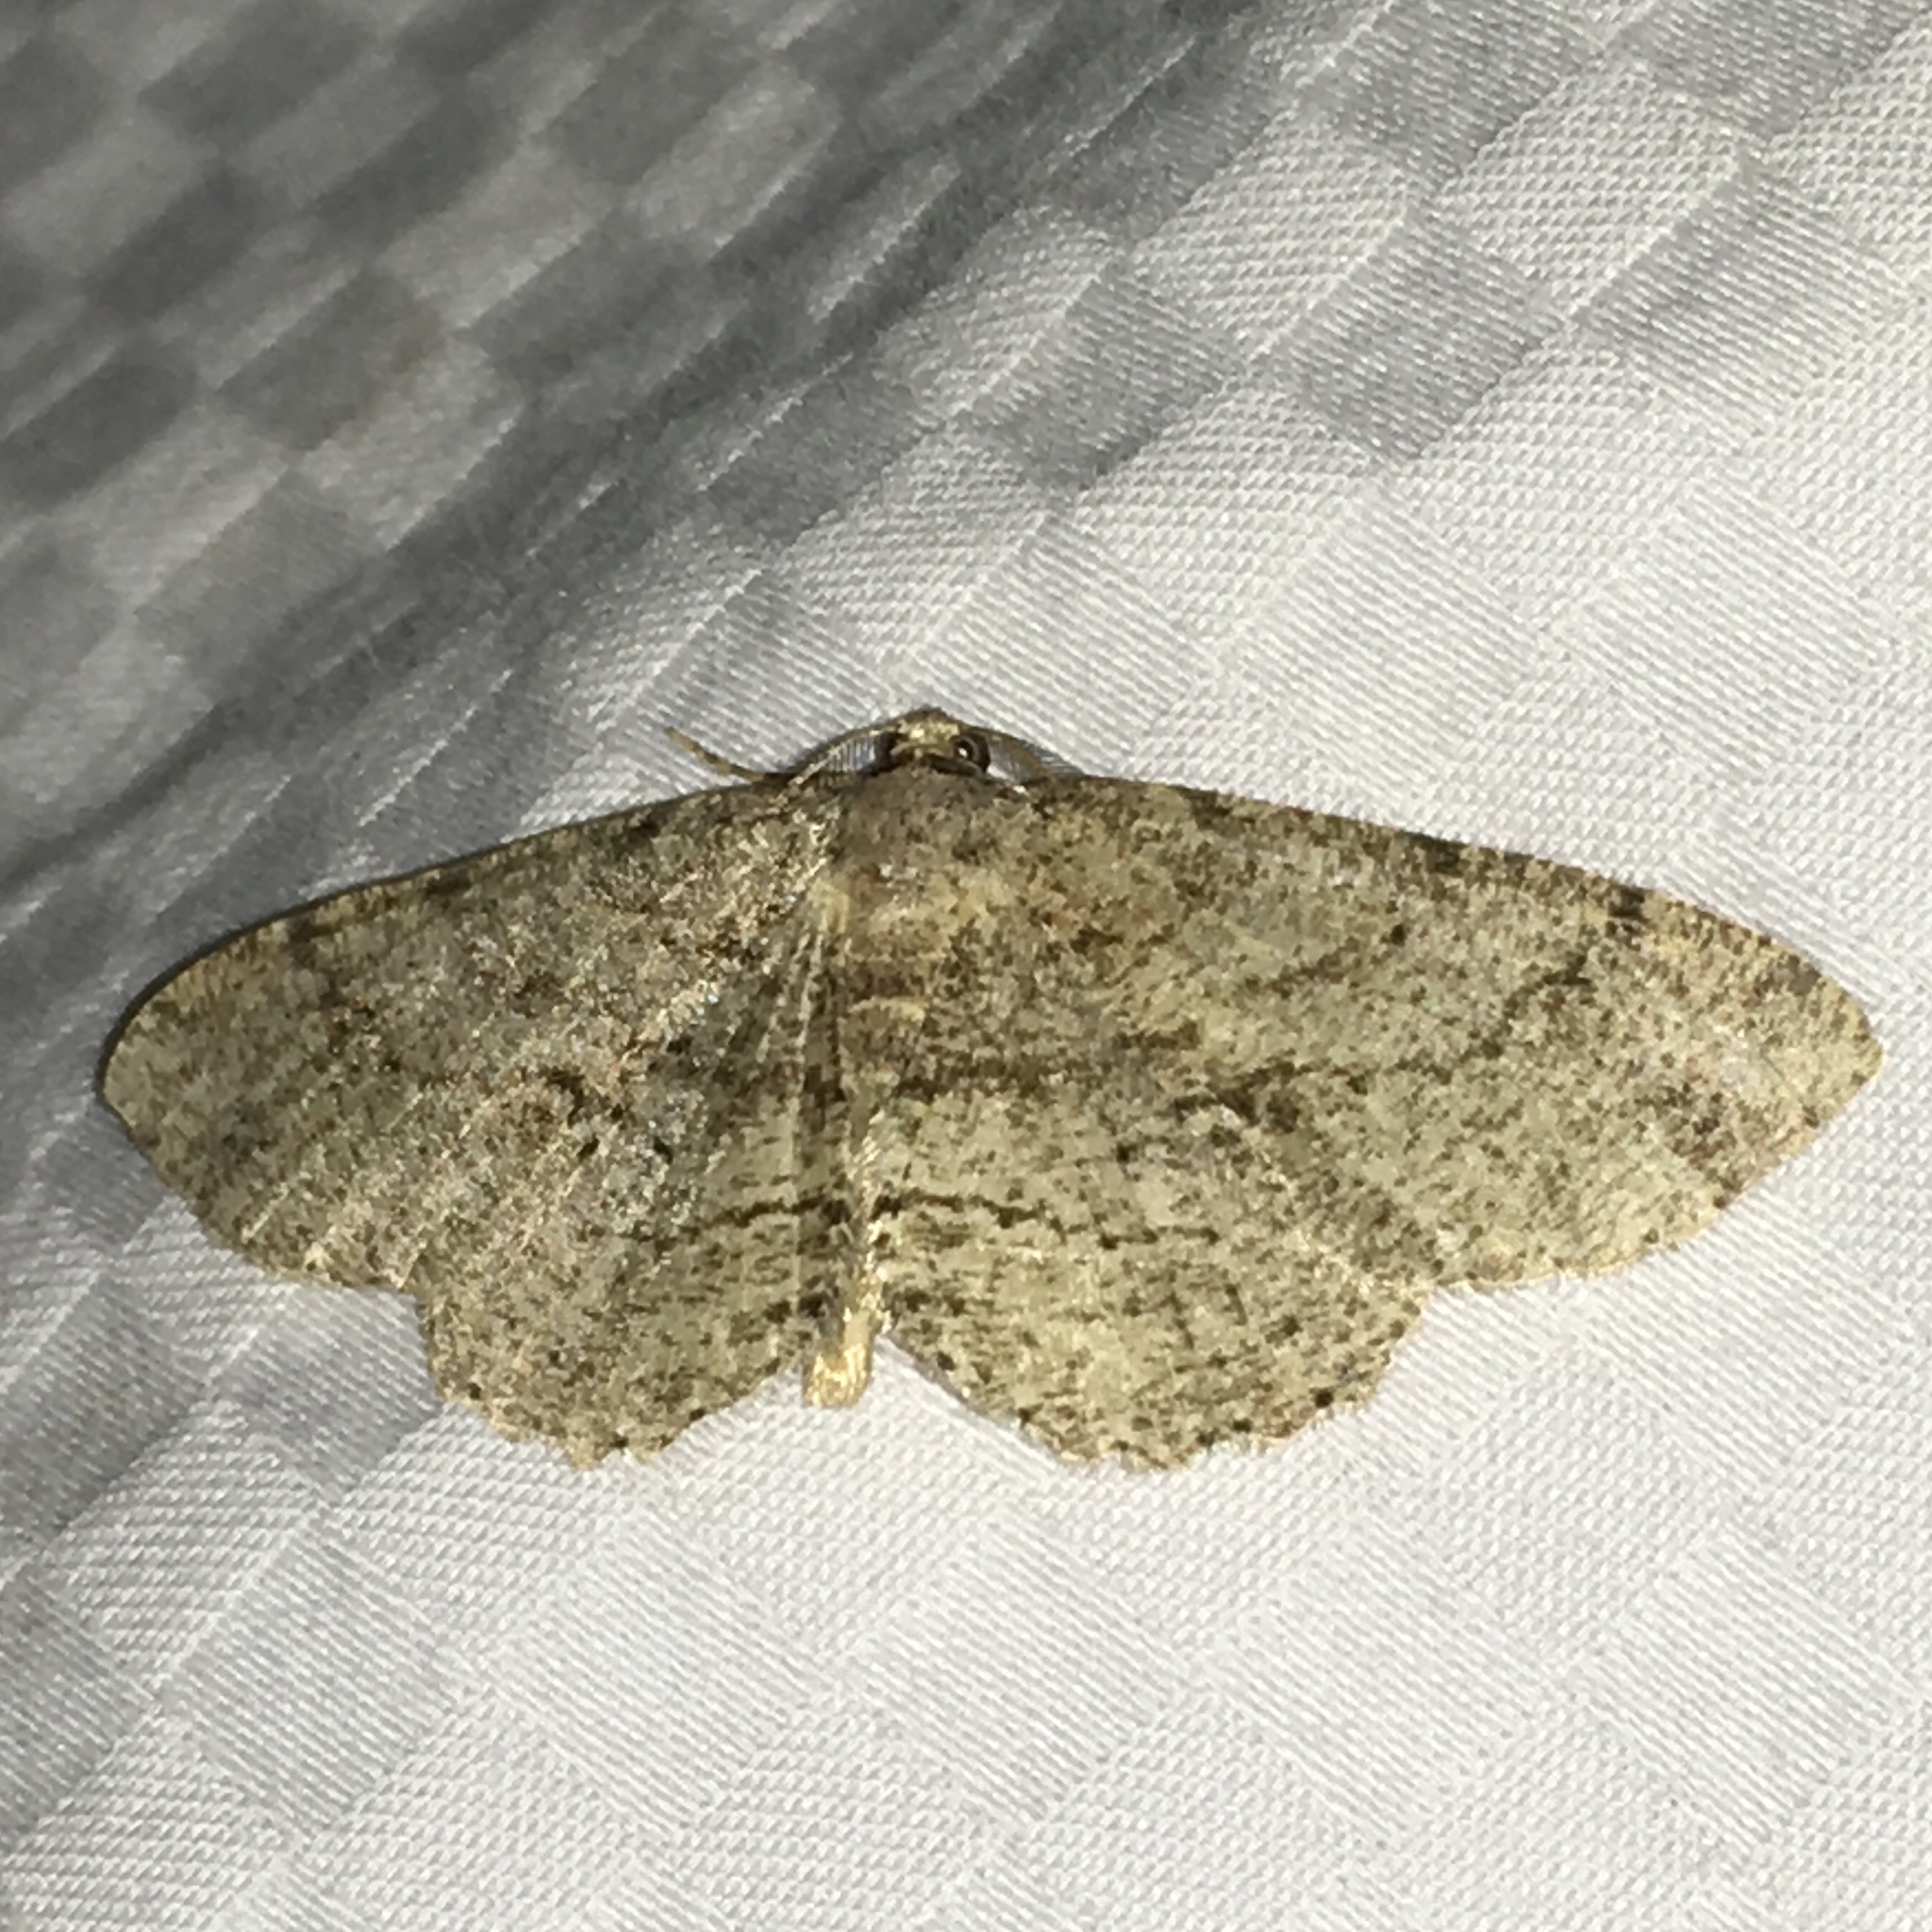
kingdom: Animalia
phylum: Arthropoda
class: Insecta
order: Lepidoptera
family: Geometridae
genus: Protoboarmia
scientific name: Protoboarmia porcelaria
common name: Porcelain gray
